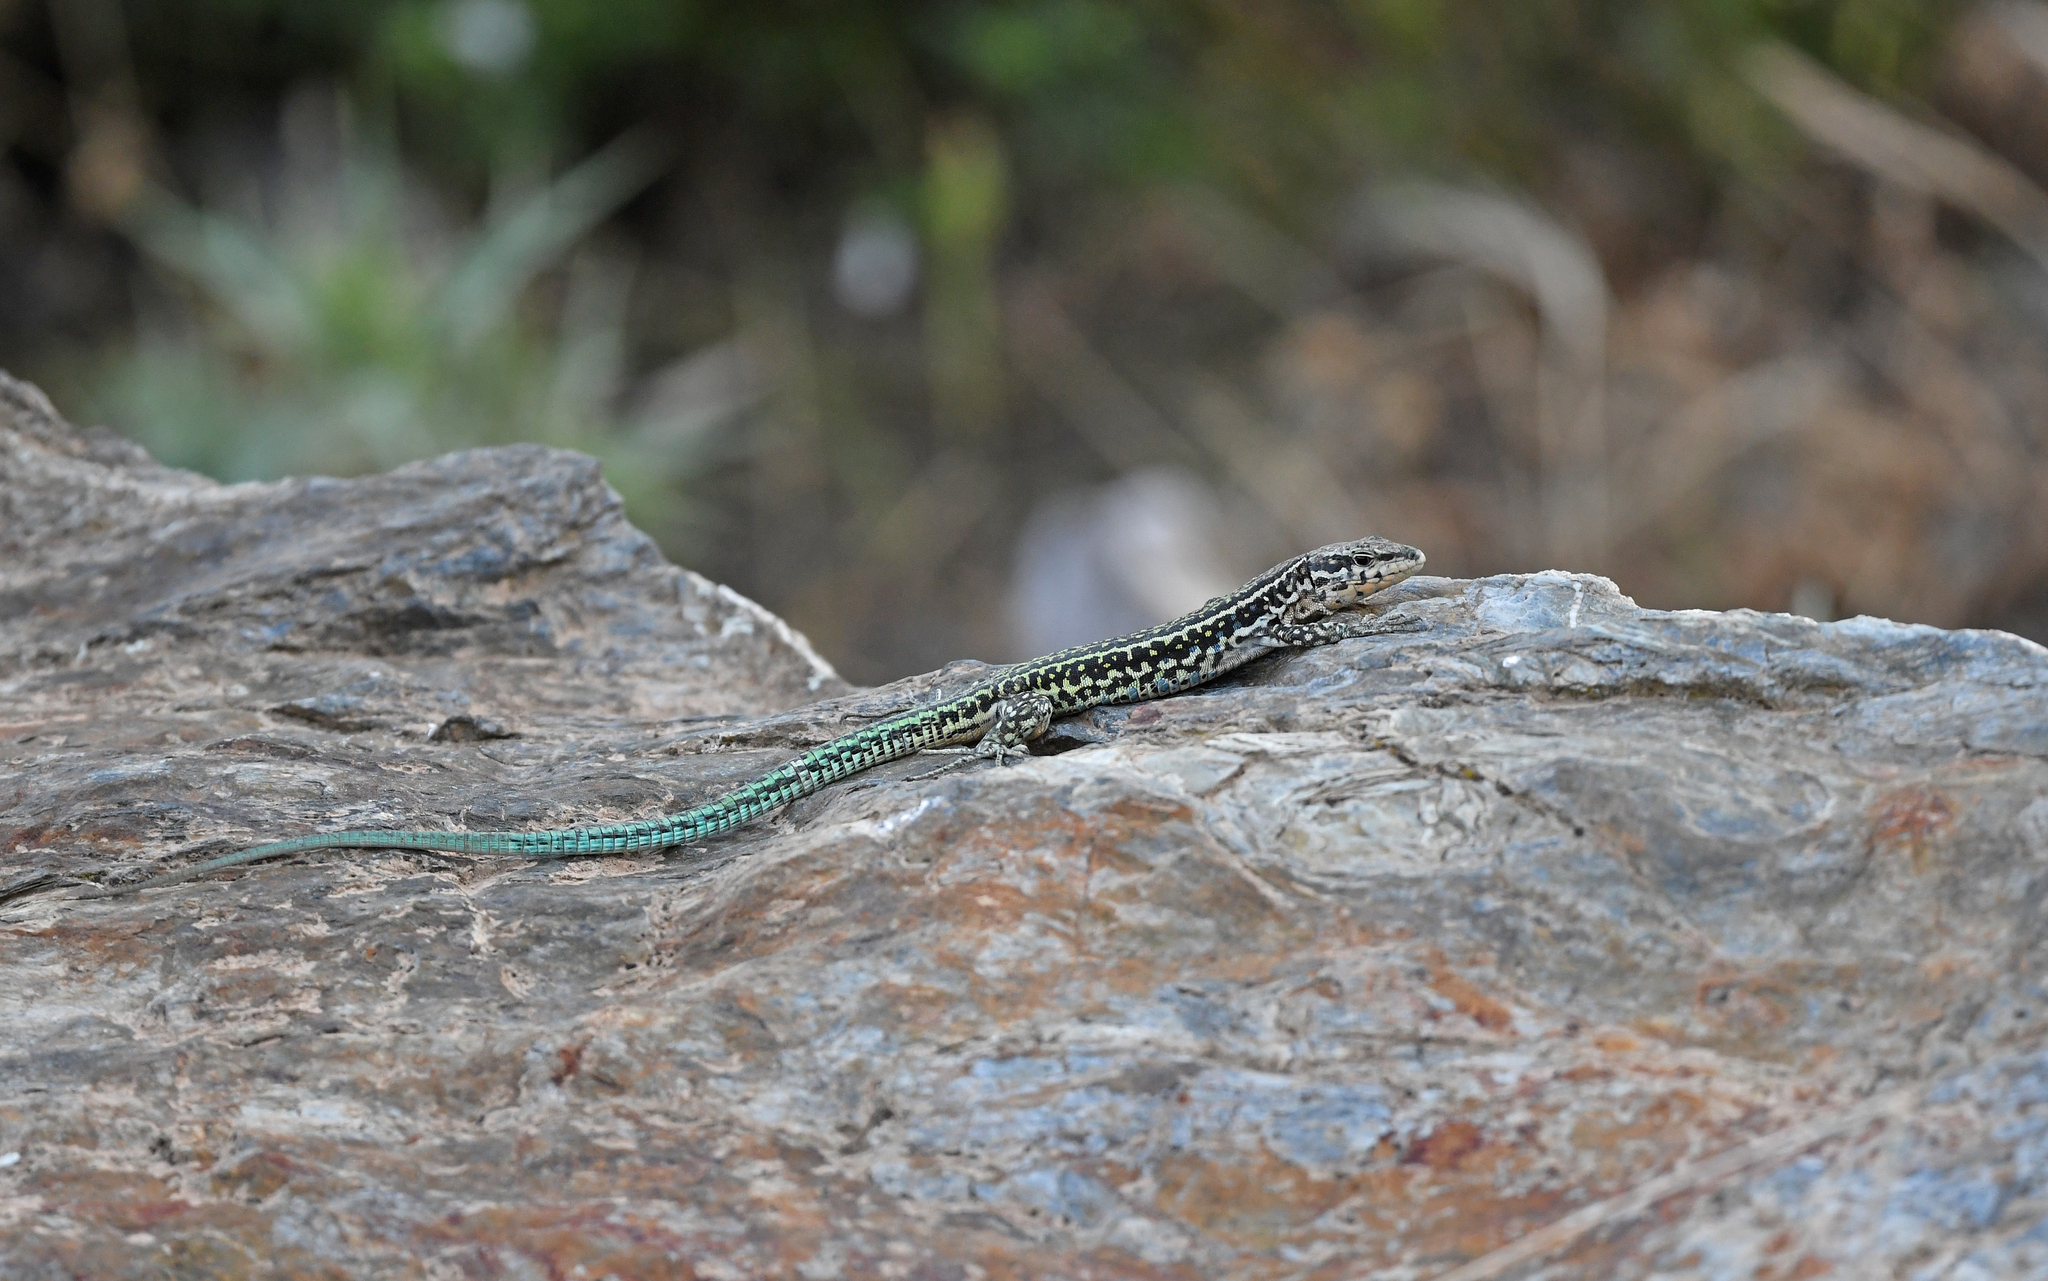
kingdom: Animalia
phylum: Chordata
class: Squamata
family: Lacertidae
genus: Podarcis
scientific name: Podarcis tiliguerta
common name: Tyrrhenian wall lizard
